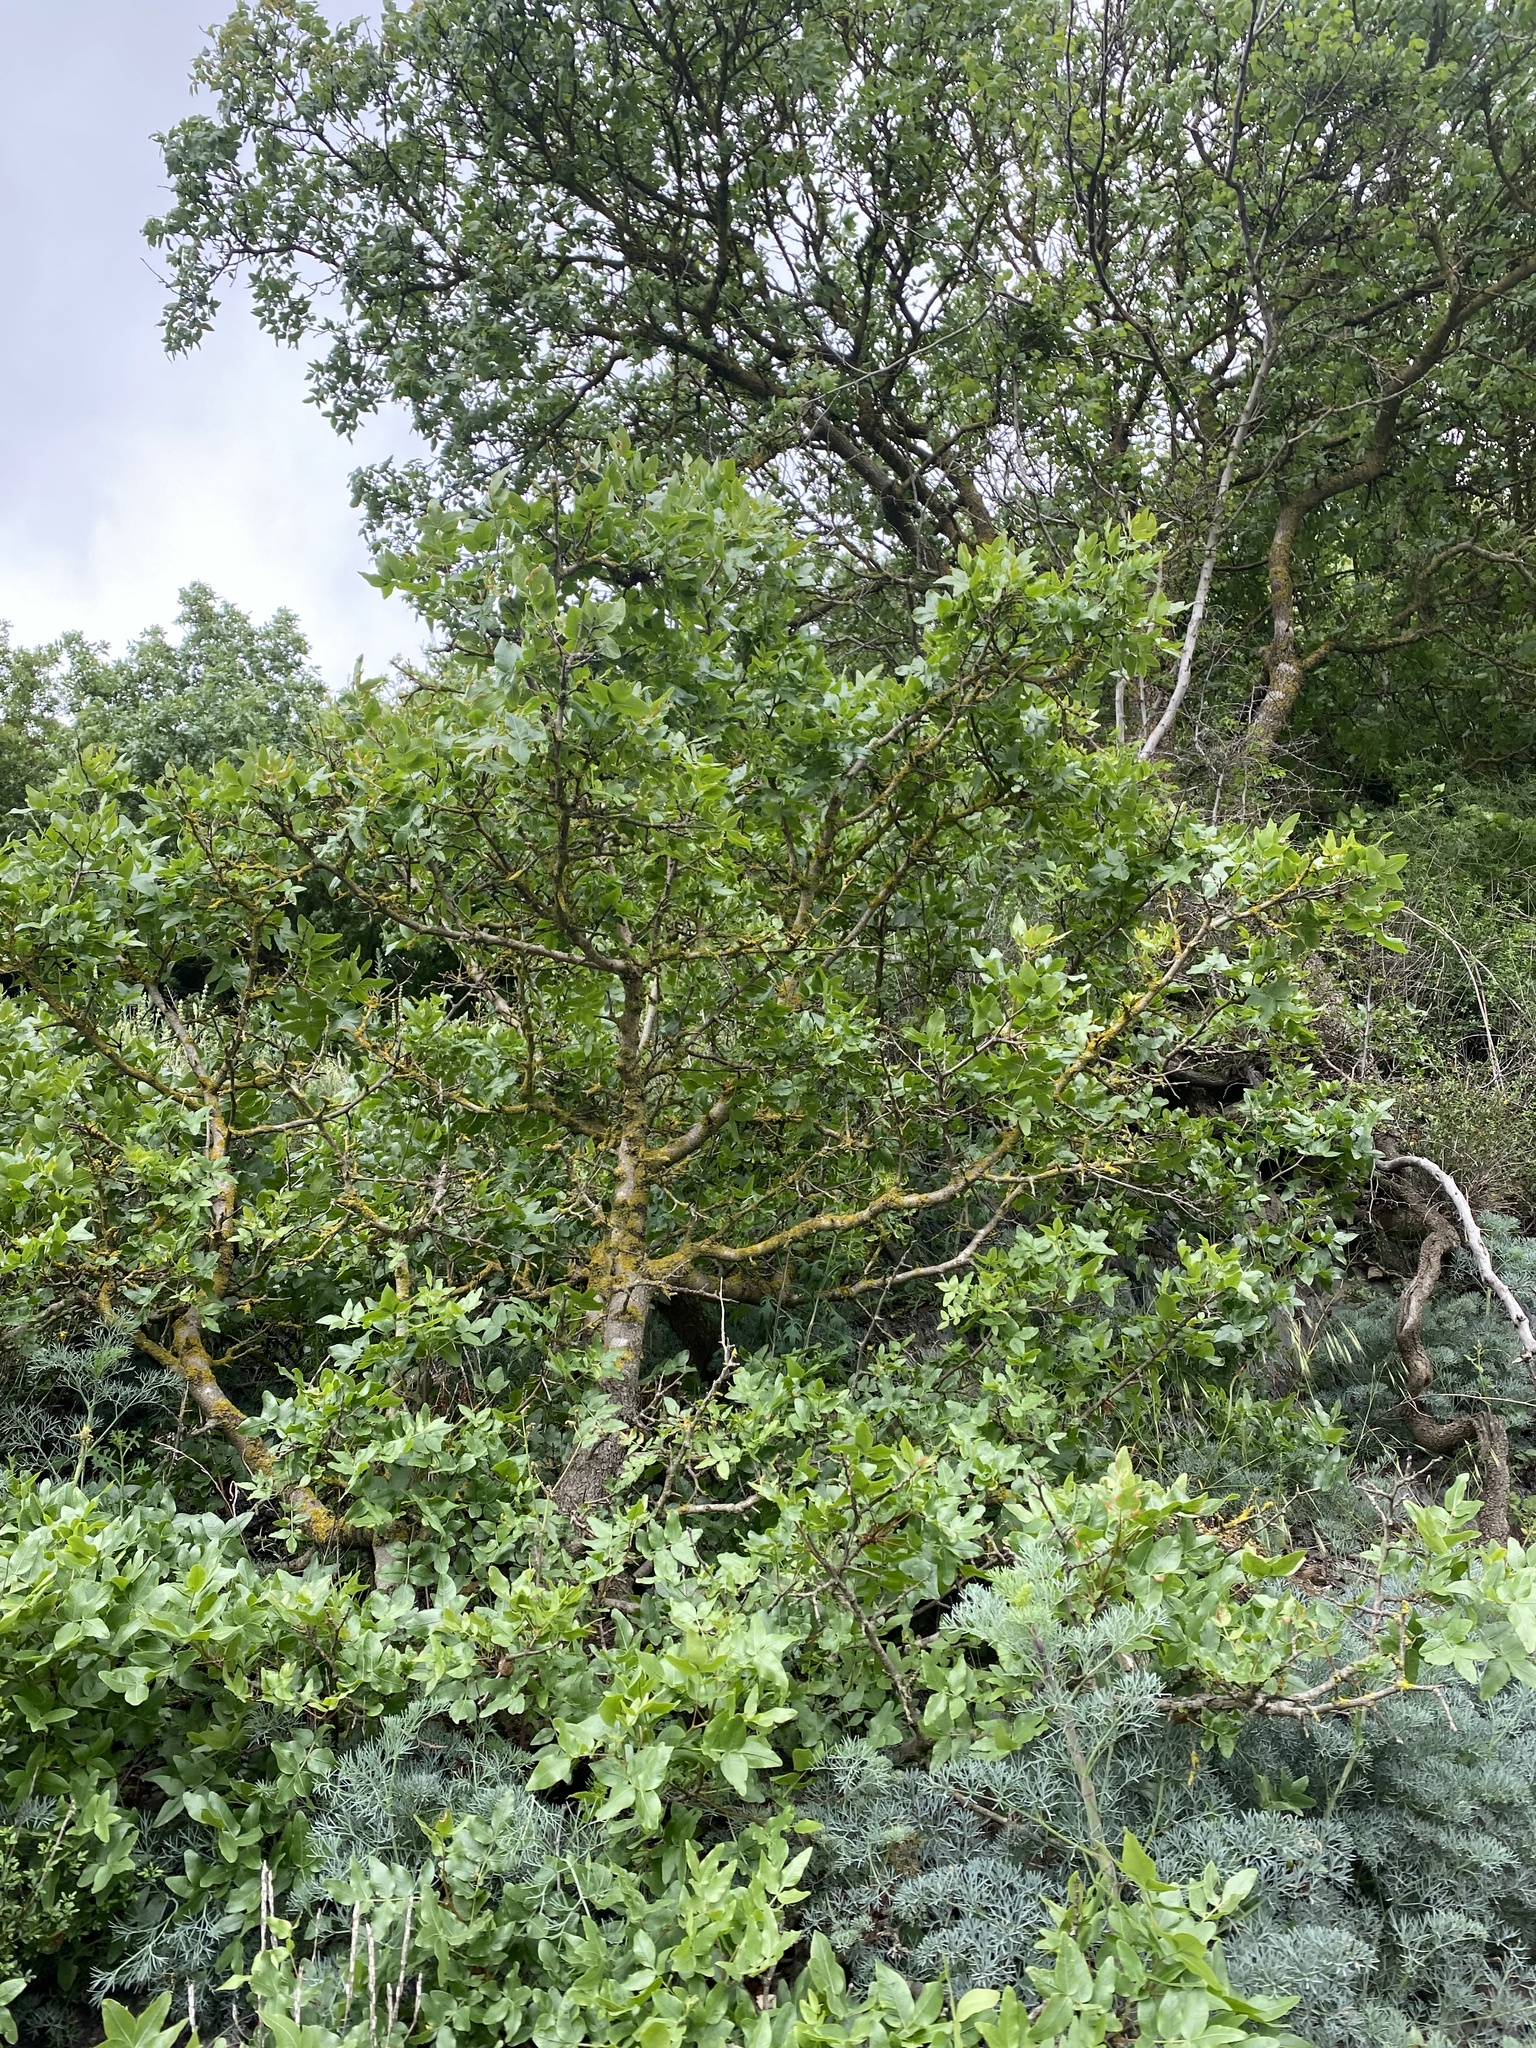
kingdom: Plantae
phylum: Tracheophyta
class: Magnoliopsida
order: Sapindales
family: Anacardiaceae
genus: Pistacia
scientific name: Pistacia atlantica
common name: Mt. atlas mastic tree
